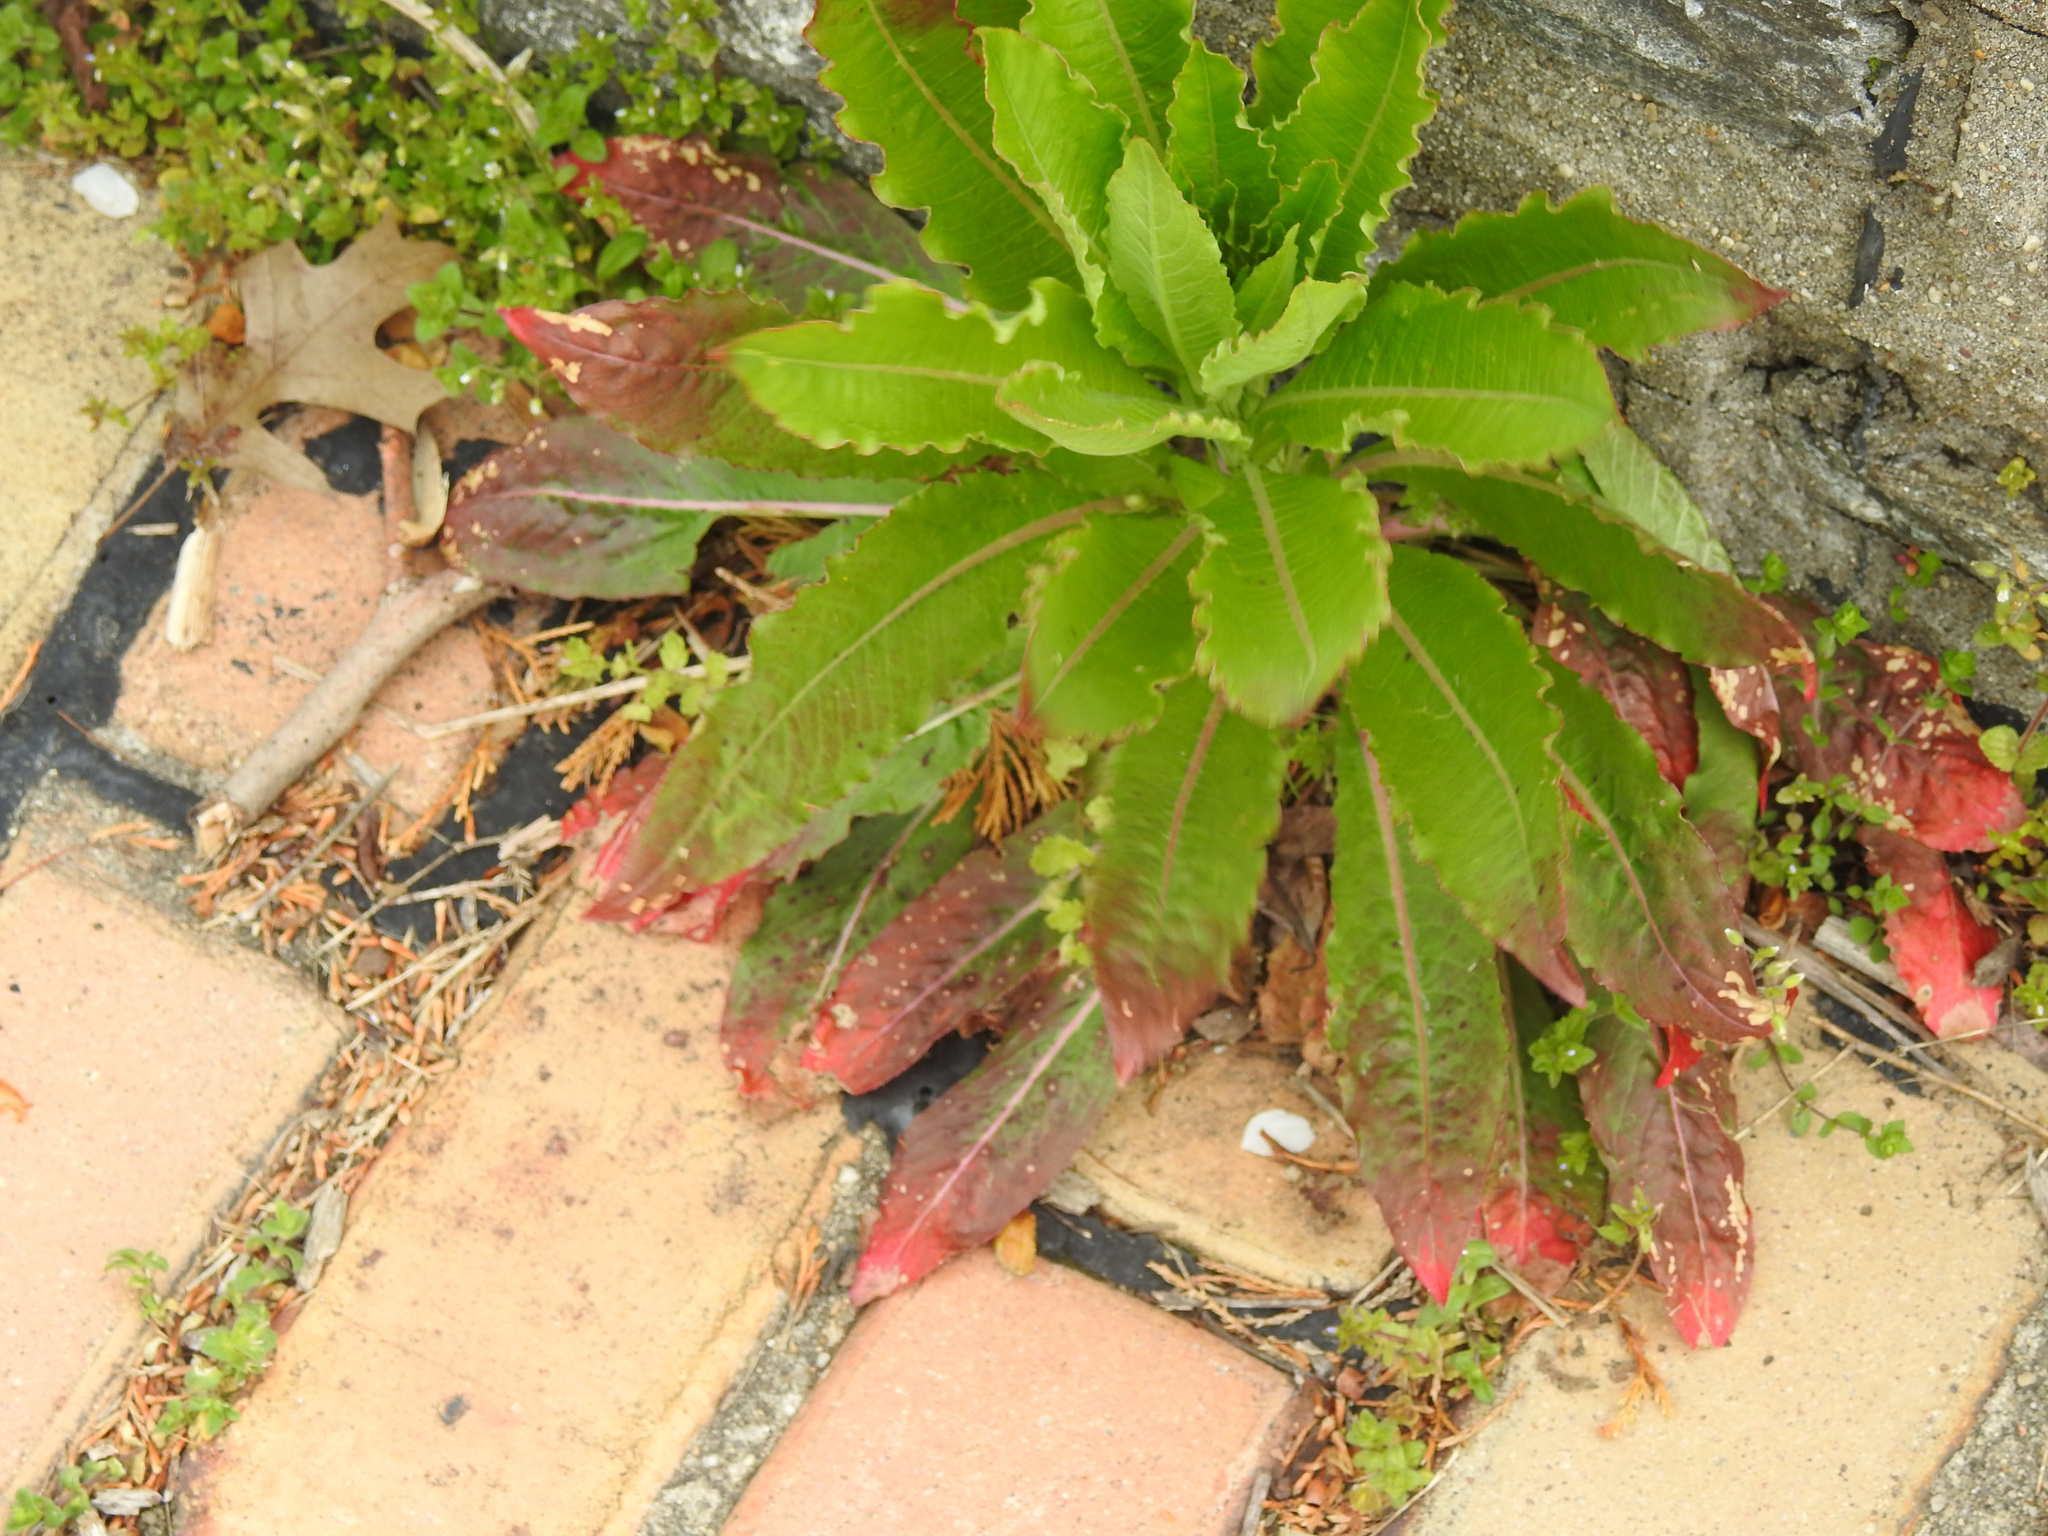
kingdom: Plantae
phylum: Tracheophyta
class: Magnoliopsida
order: Myrtales
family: Onagraceae
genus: Oenothera
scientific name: Oenothera biennis
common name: Common evening-primrose
